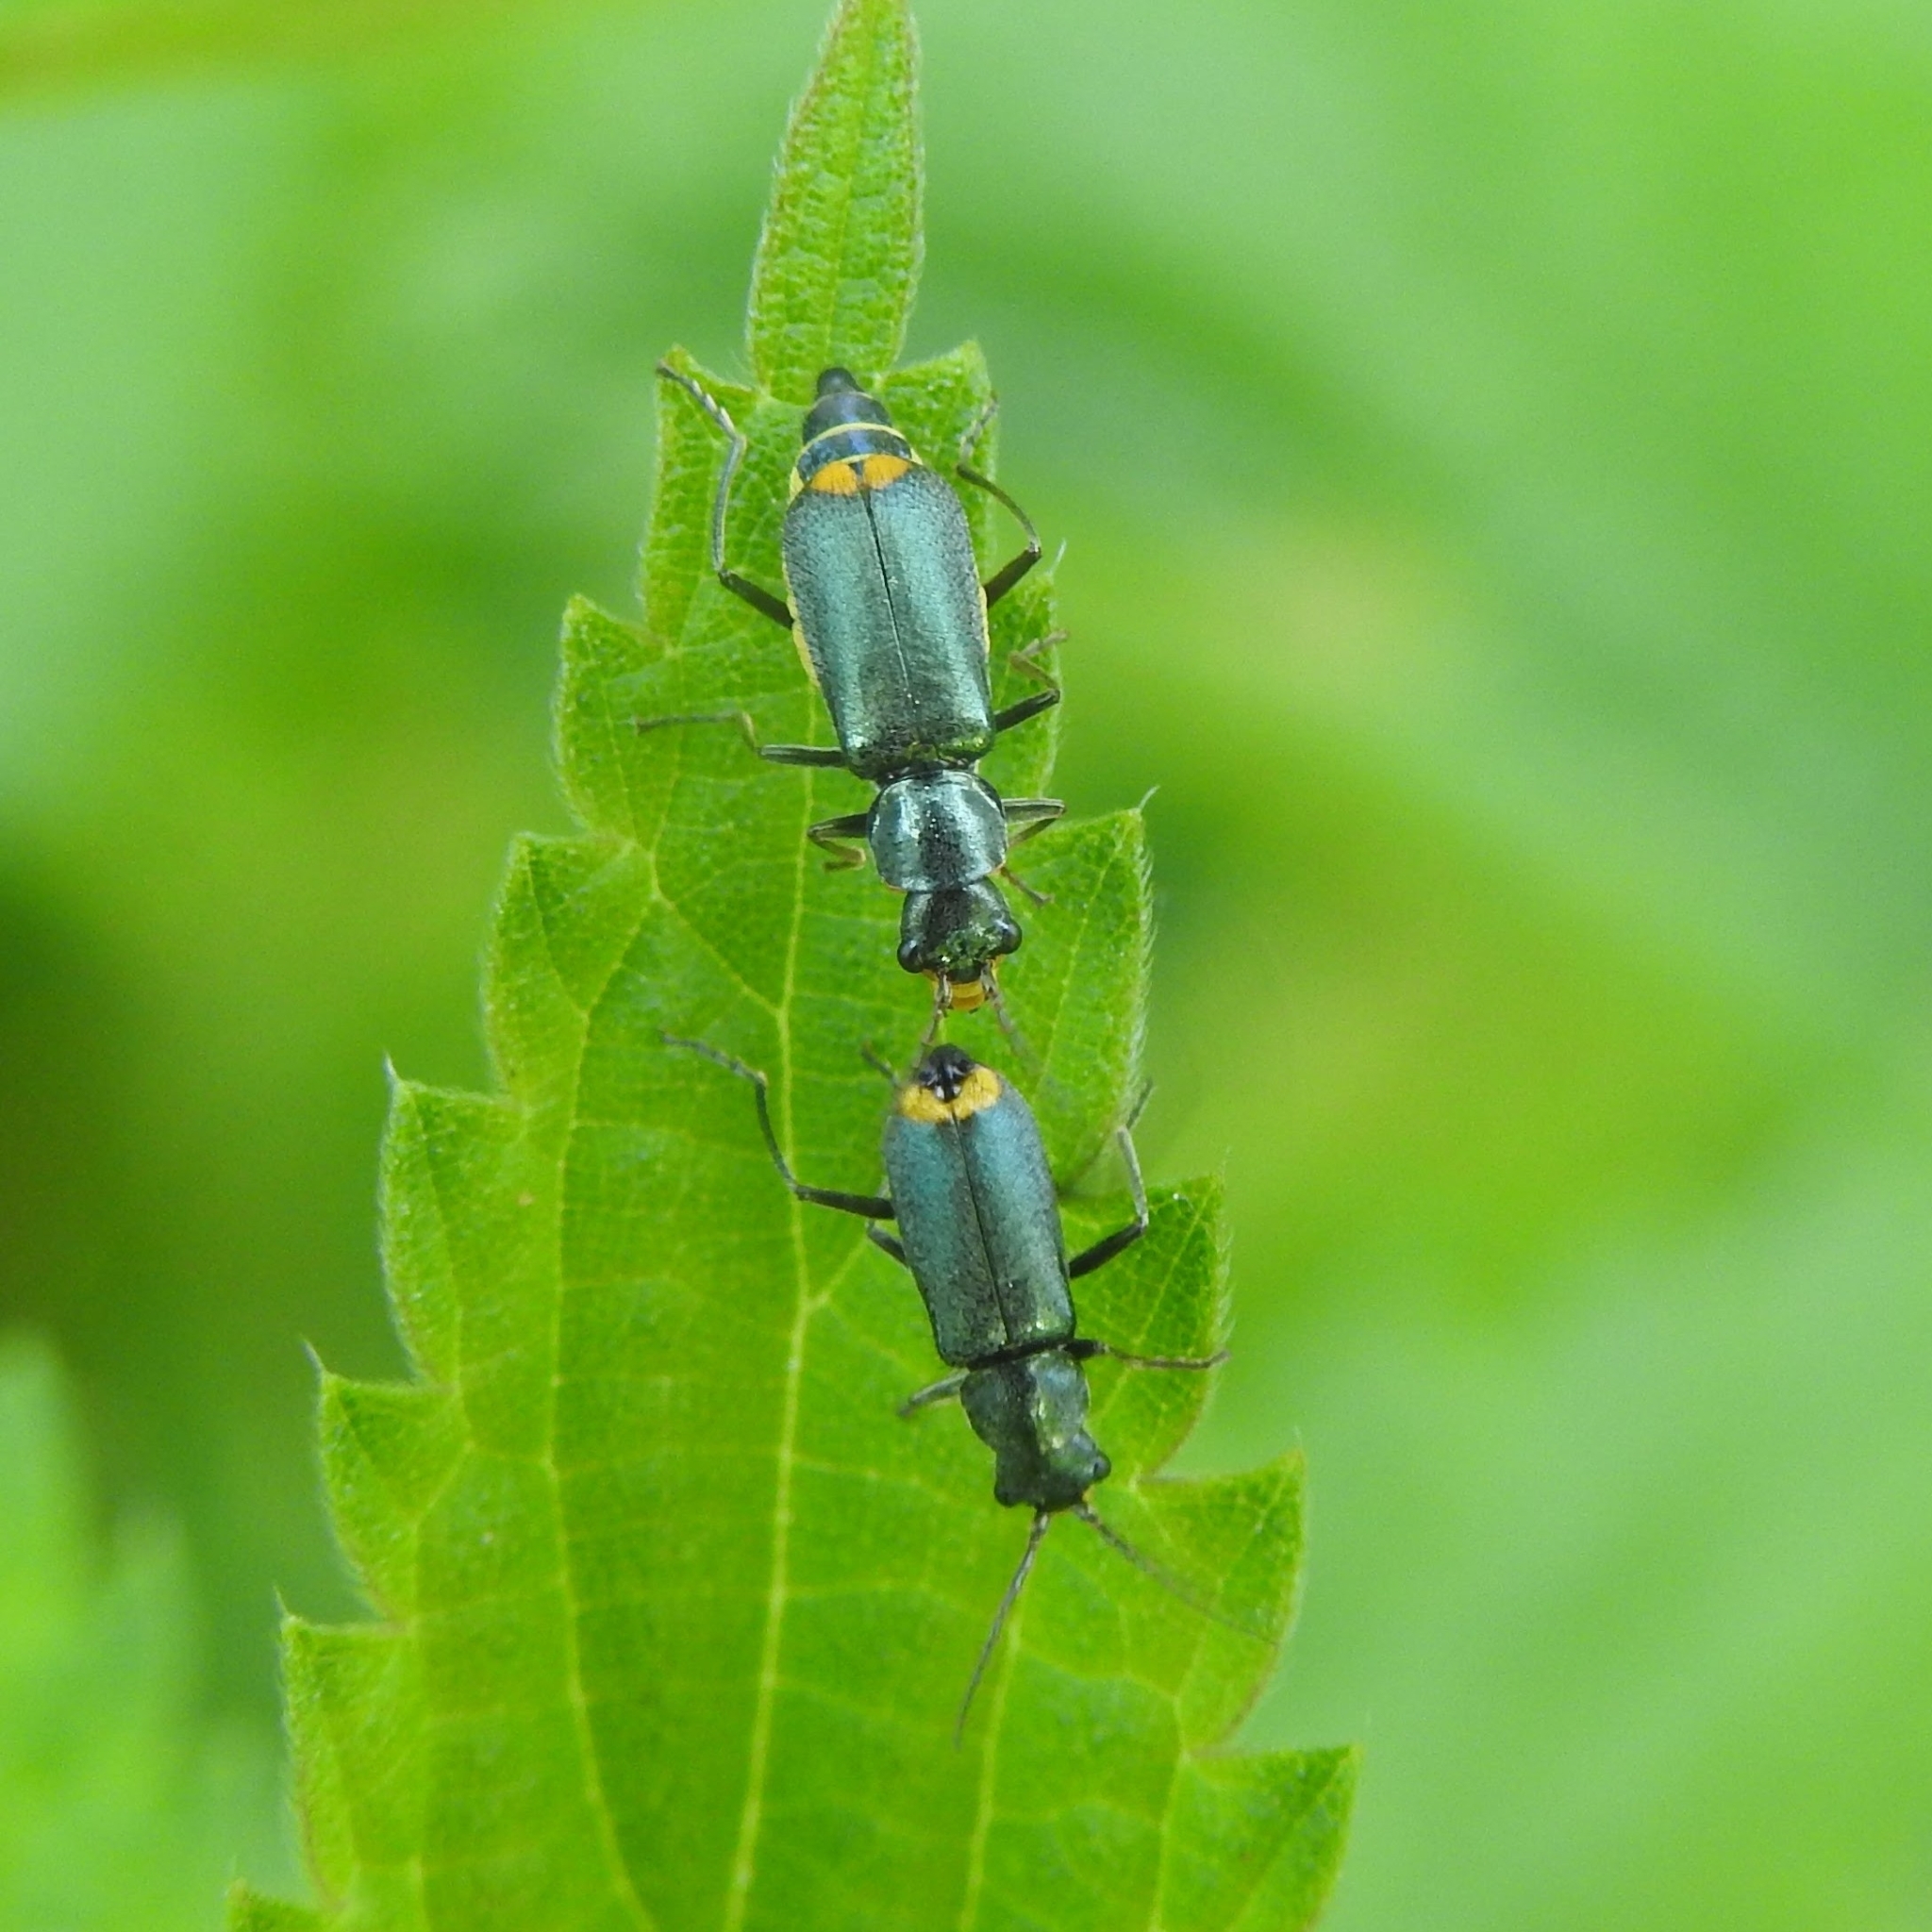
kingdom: Animalia
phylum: Arthropoda
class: Insecta
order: Coleoptera
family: Malachiidae
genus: Clanoptilus
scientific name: Clanoptilus marginellus
